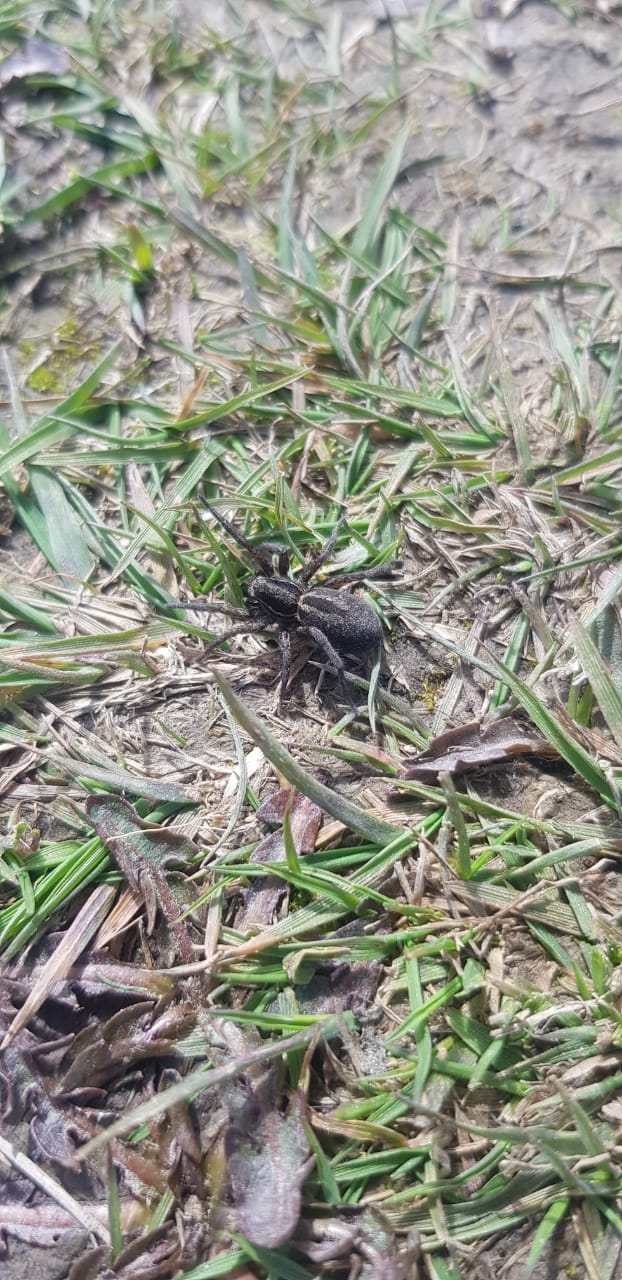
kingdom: Animalia
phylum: Arthropoda
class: Arachnida
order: Araneae
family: Lycosidae
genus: Alopecosa
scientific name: Alopecosa nigricans
